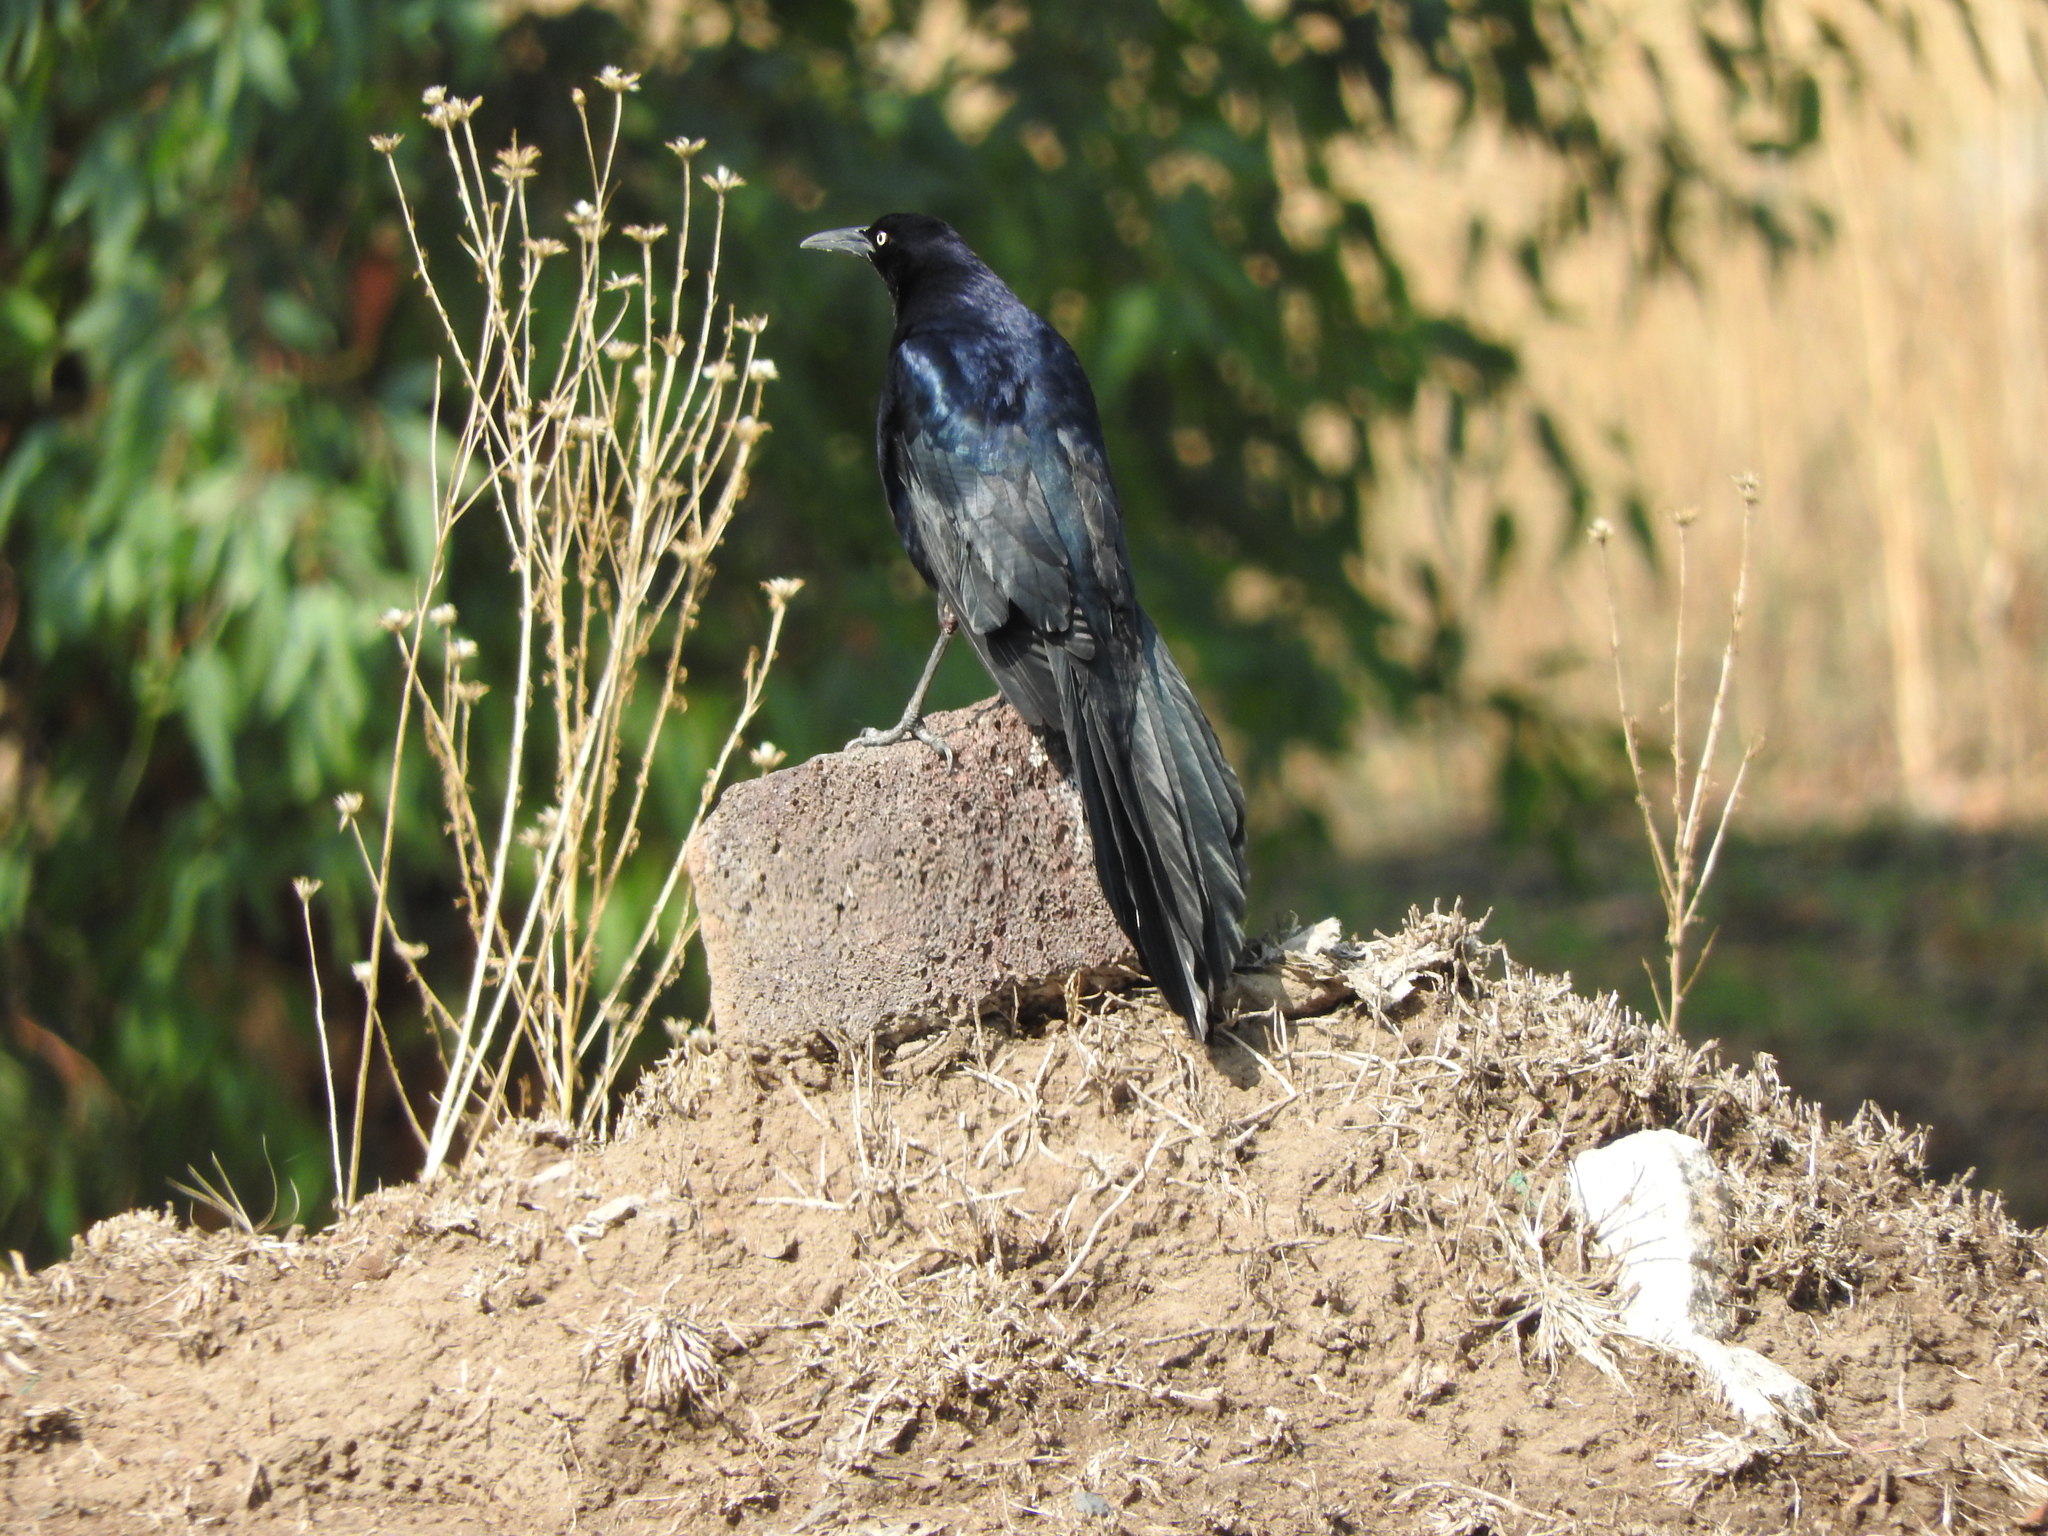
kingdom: Animalia
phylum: Chordata
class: Aves
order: Passeriformes
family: Icteridae
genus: Quiscalus
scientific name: Quiscalus mexicanus
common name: Great-tailed grackle
